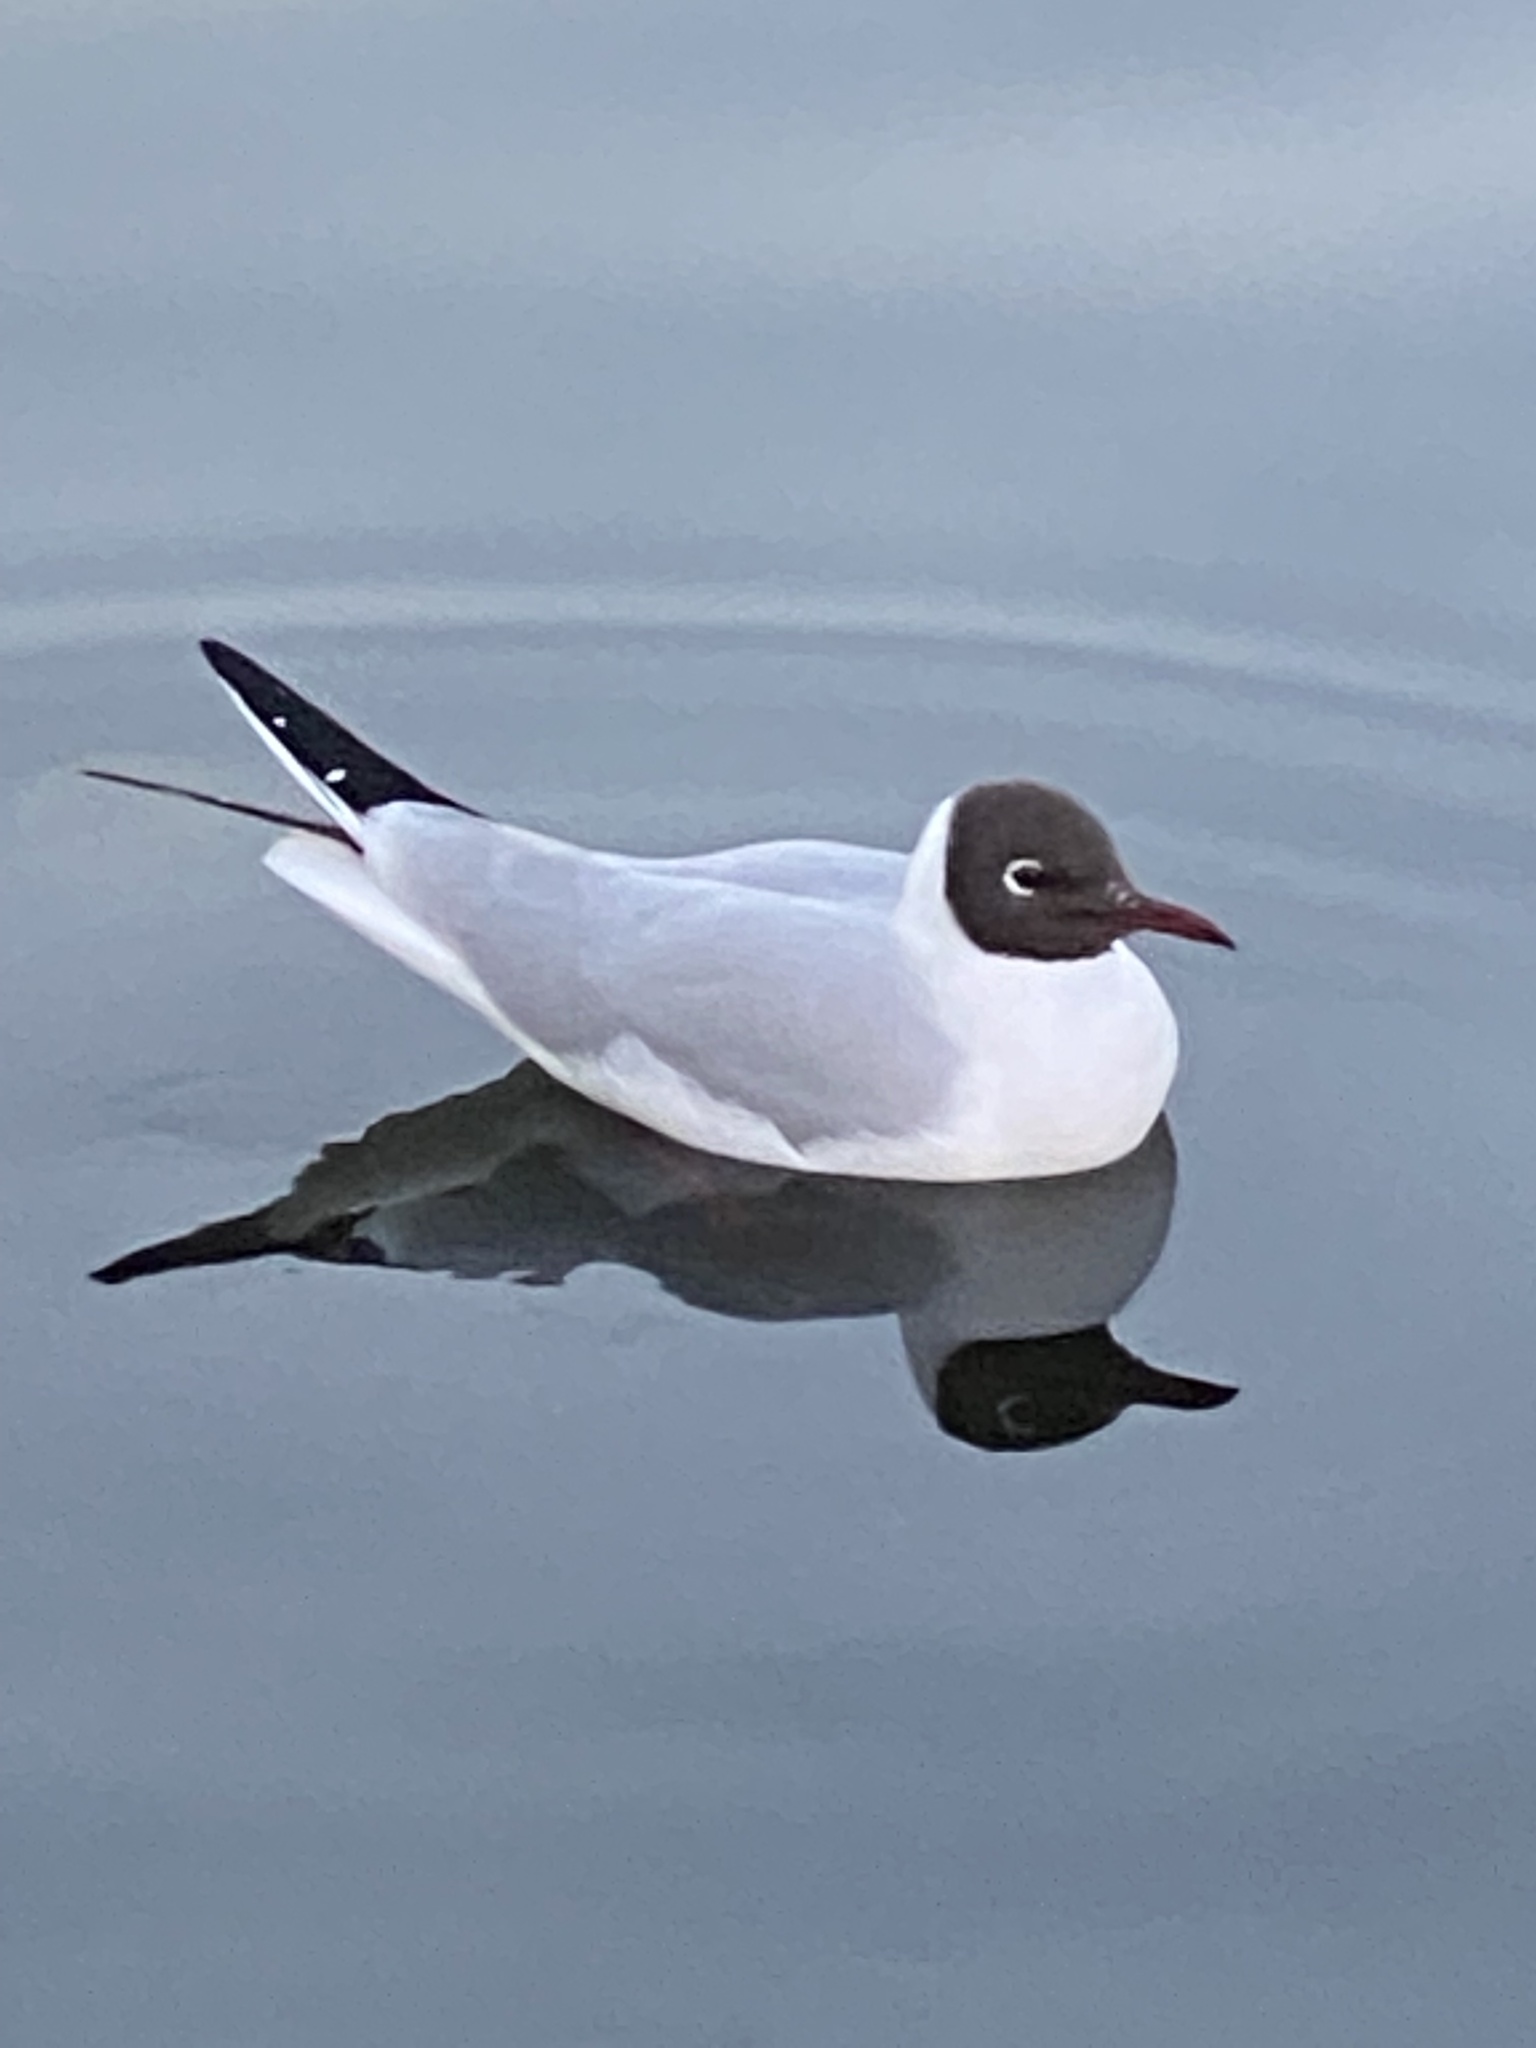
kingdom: Animalia
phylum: Chordata
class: Aves
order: Charadriiformes
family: Laridae
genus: Chroicocephalus
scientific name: Chroicocephalus ridibundus
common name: Black-headed gull
